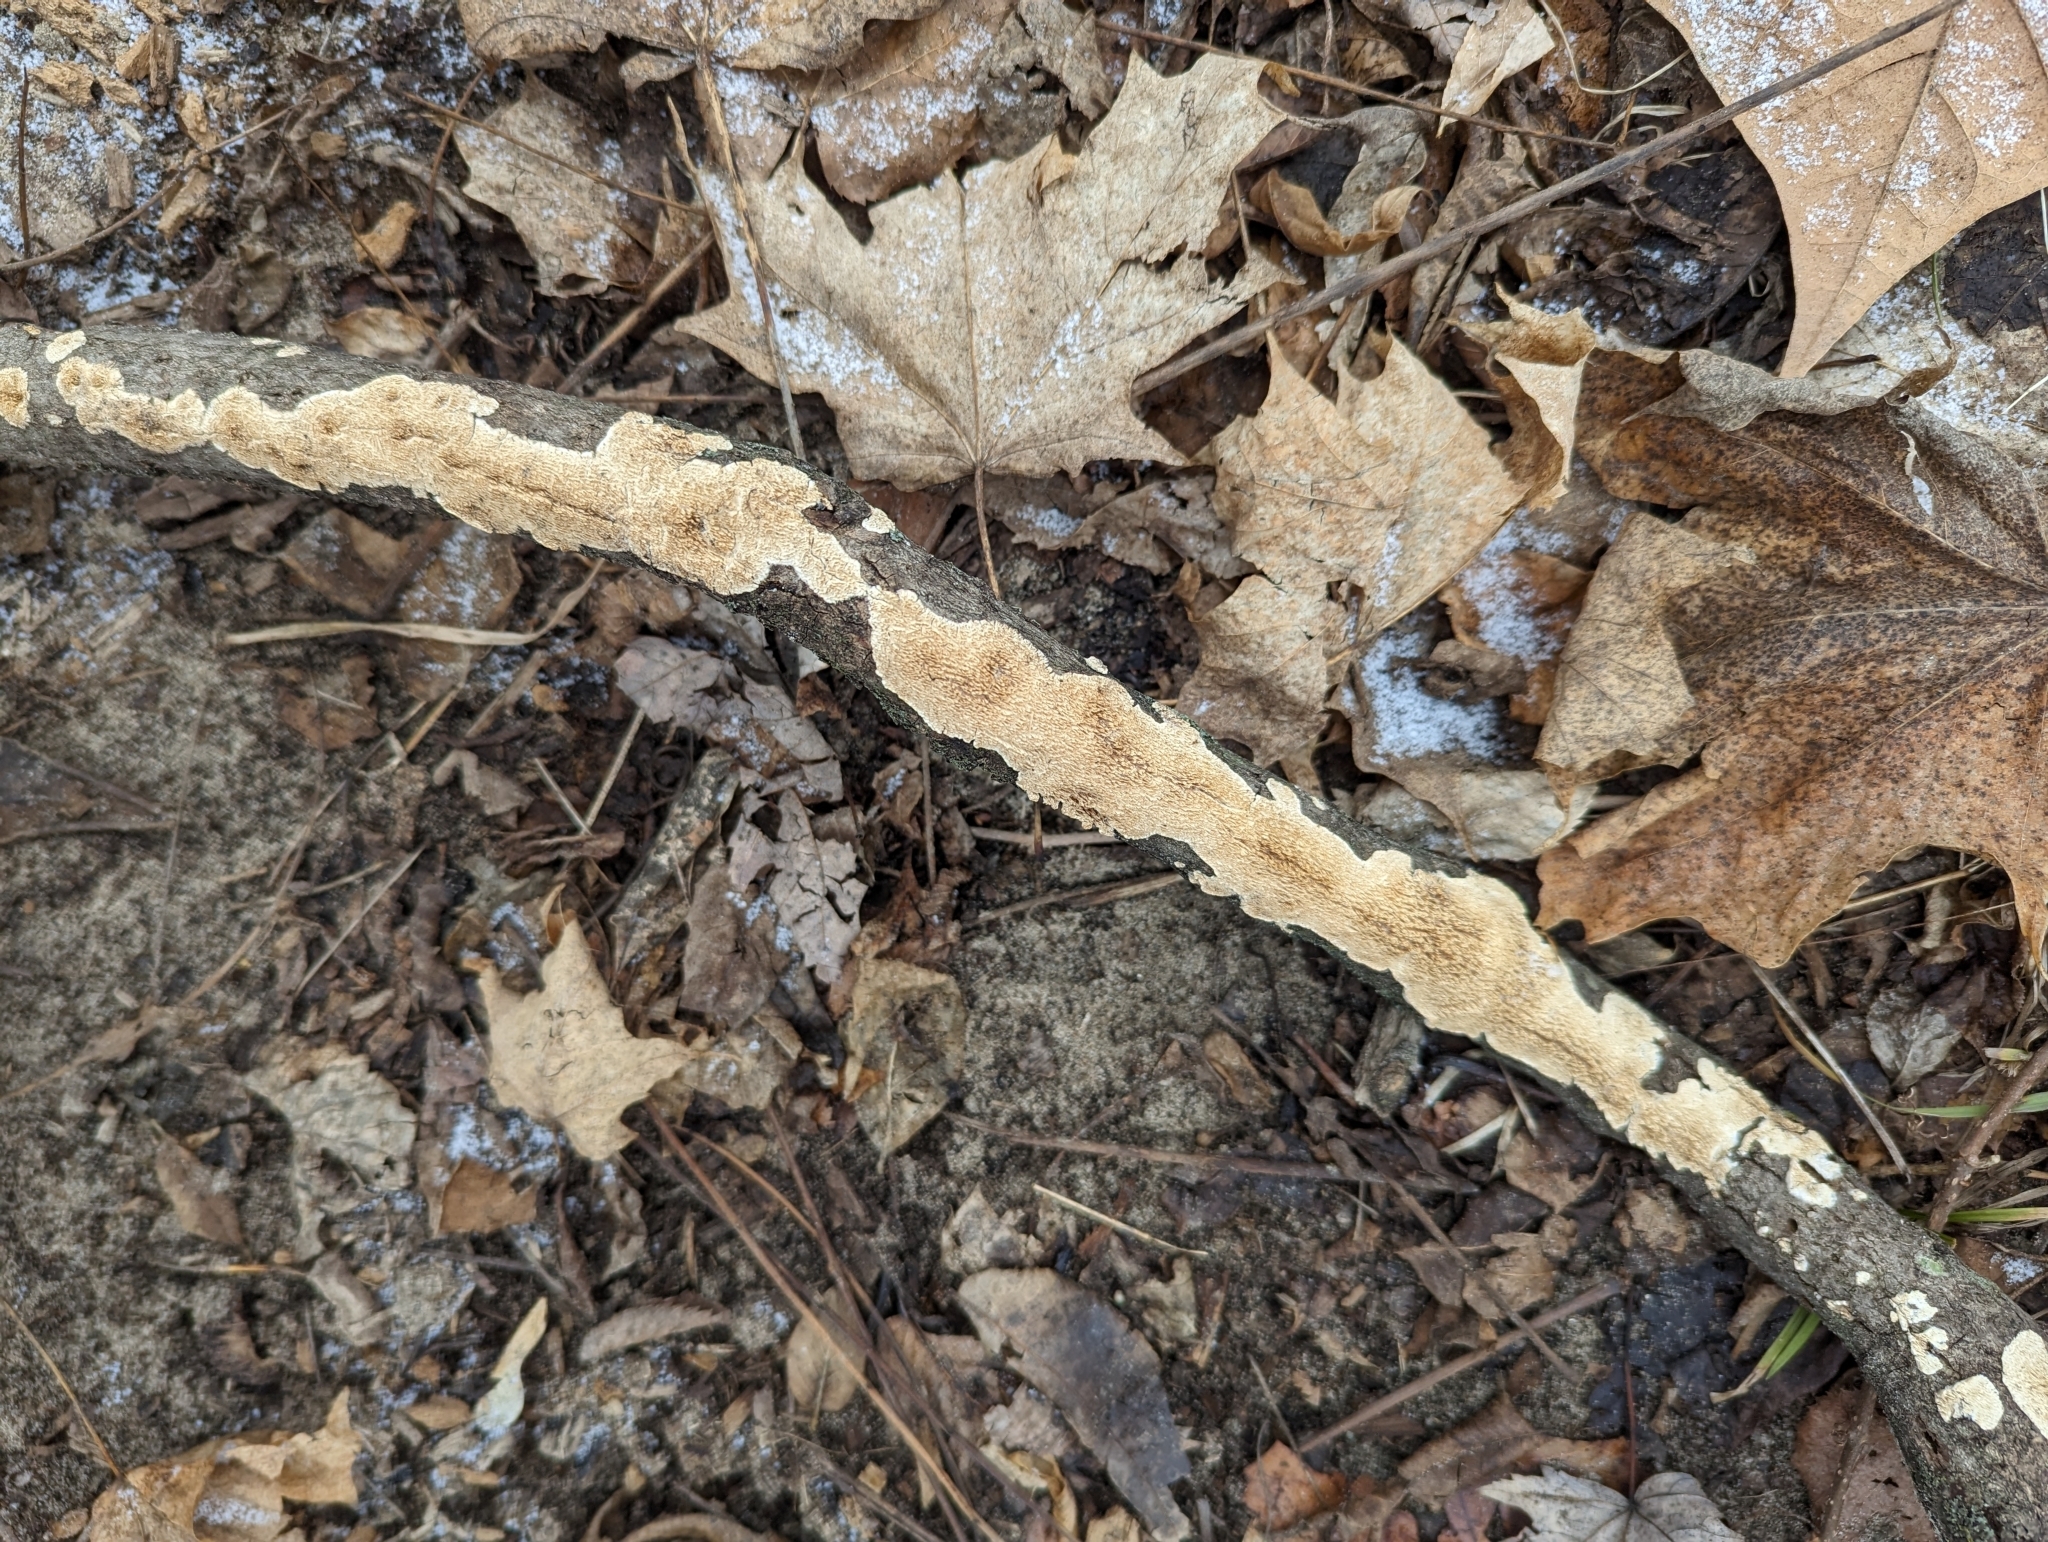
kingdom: Fungi
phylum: Basidiomycota
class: Agaricomycetes
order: Polyporales
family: Irpicaceae
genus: Irpex
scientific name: Irpex lacteus
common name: Milk-white toothed polypore
